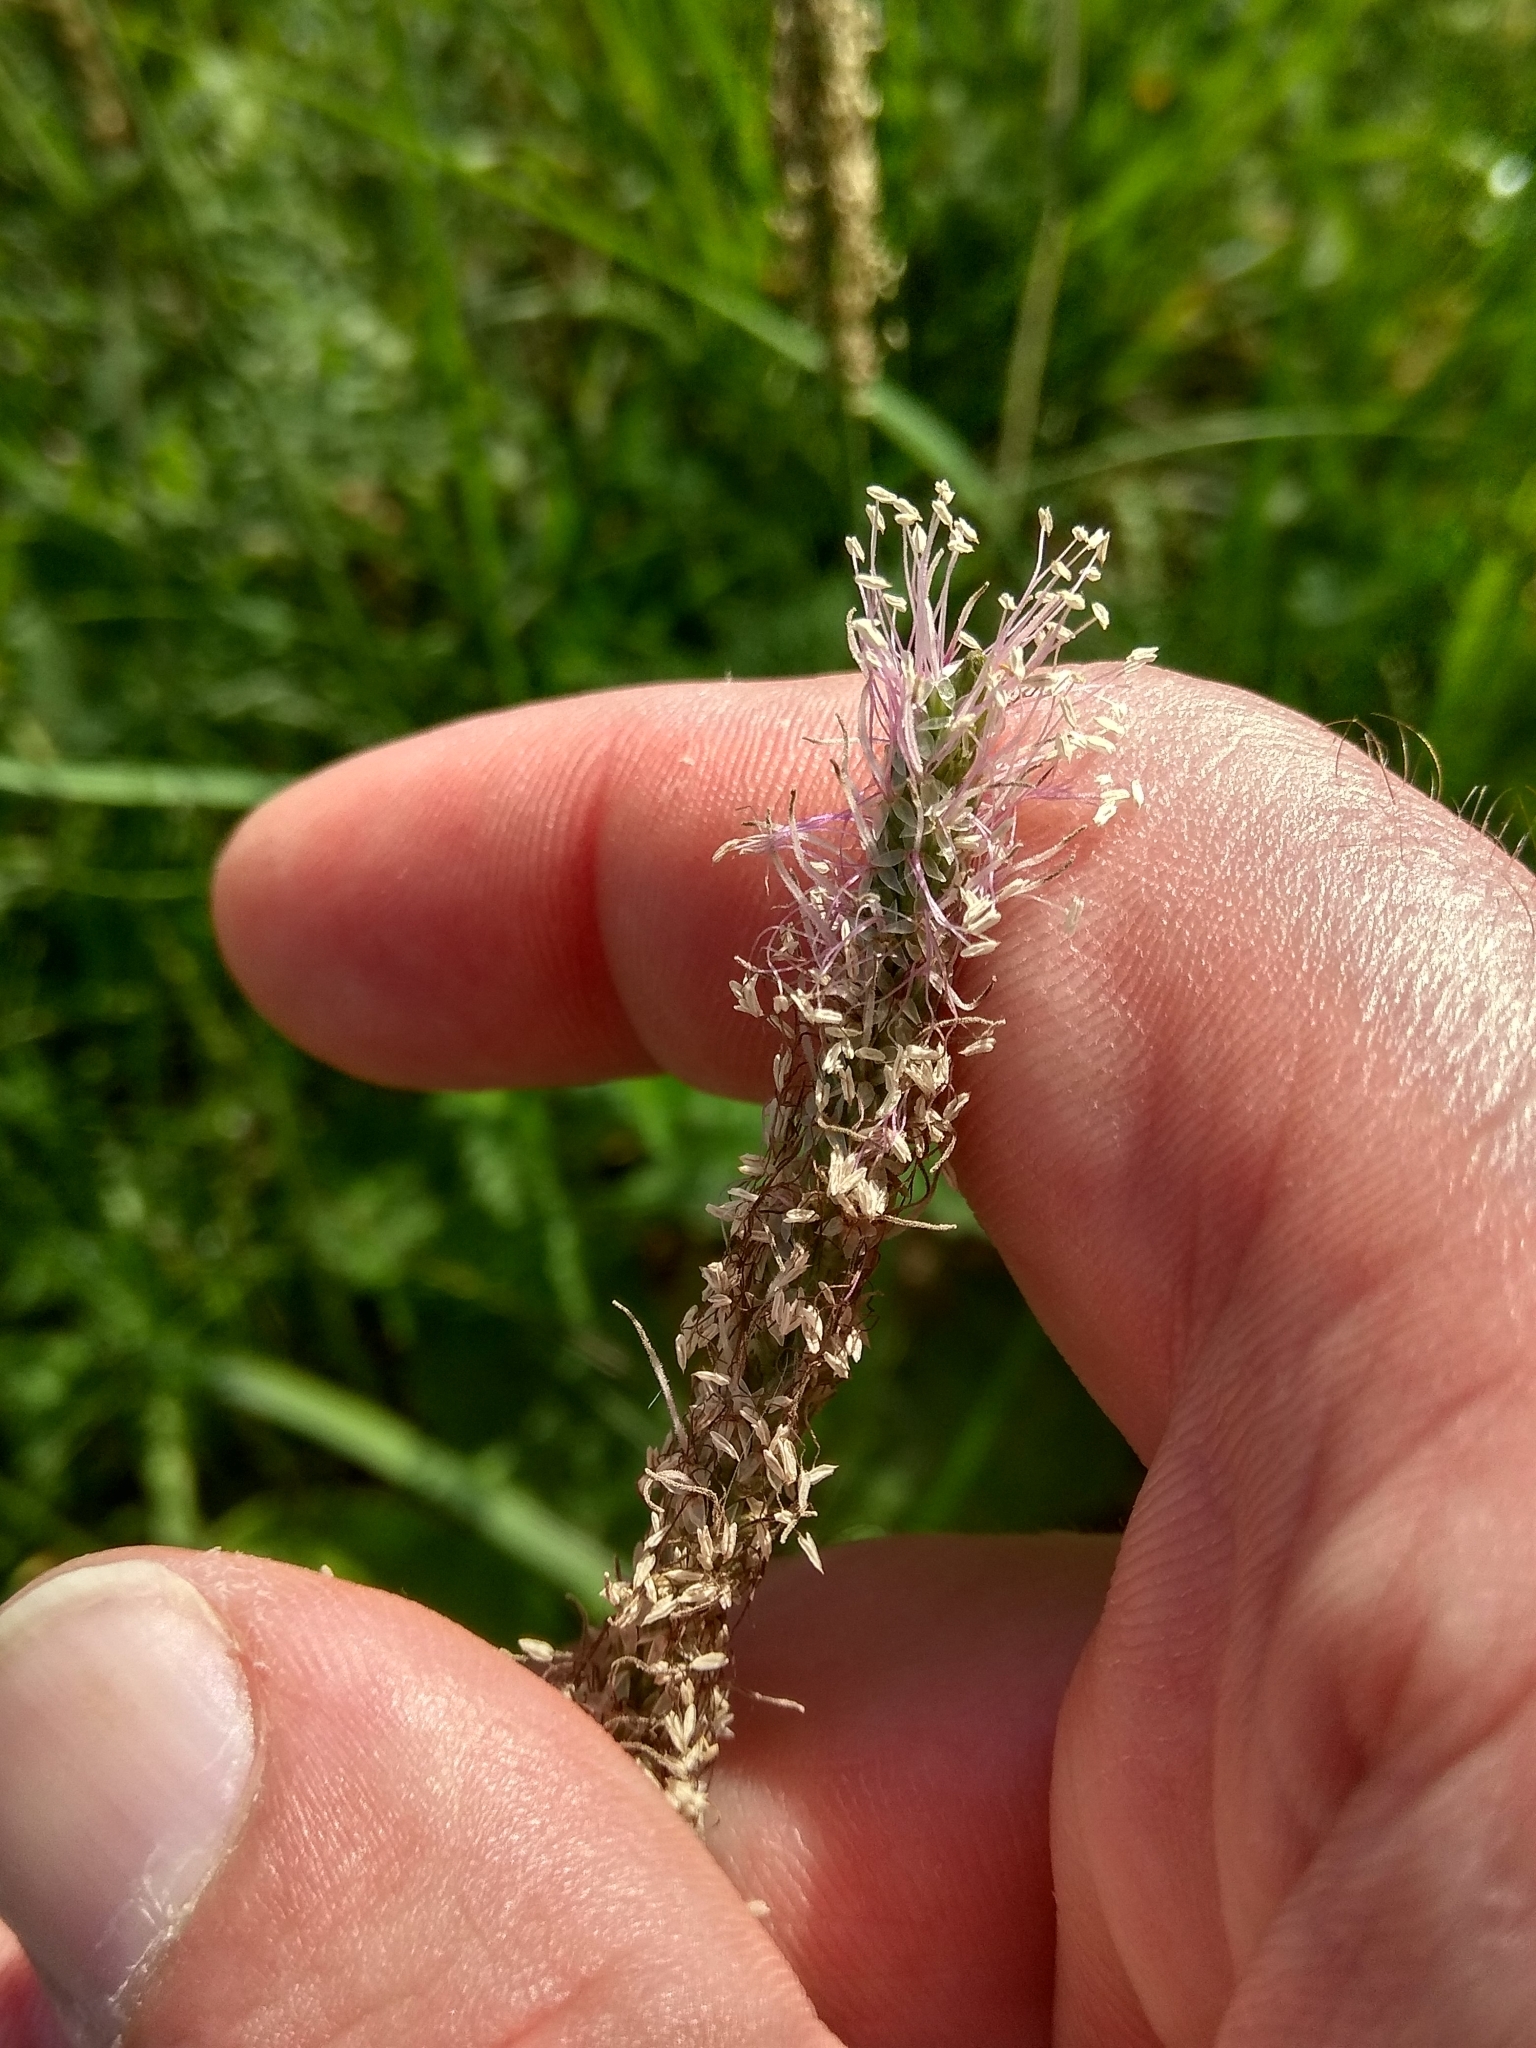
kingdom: Plantae
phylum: Tracheophyta
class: Magnoliopsida
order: Lamiales
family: Plantaginaceae
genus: Plantago
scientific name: Plantago urvillei
